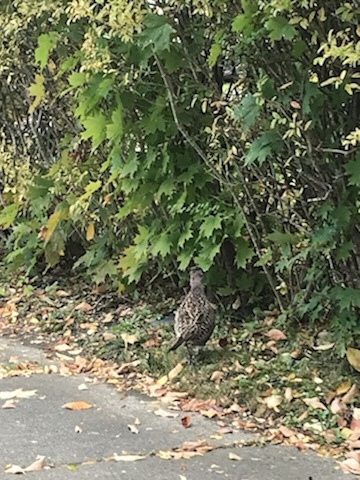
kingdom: Animalia
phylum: Chordata
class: Aves
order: Galliformes
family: Phasianidae
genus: Phasianus
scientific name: Phasianus colchicus
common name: Common pheasant
